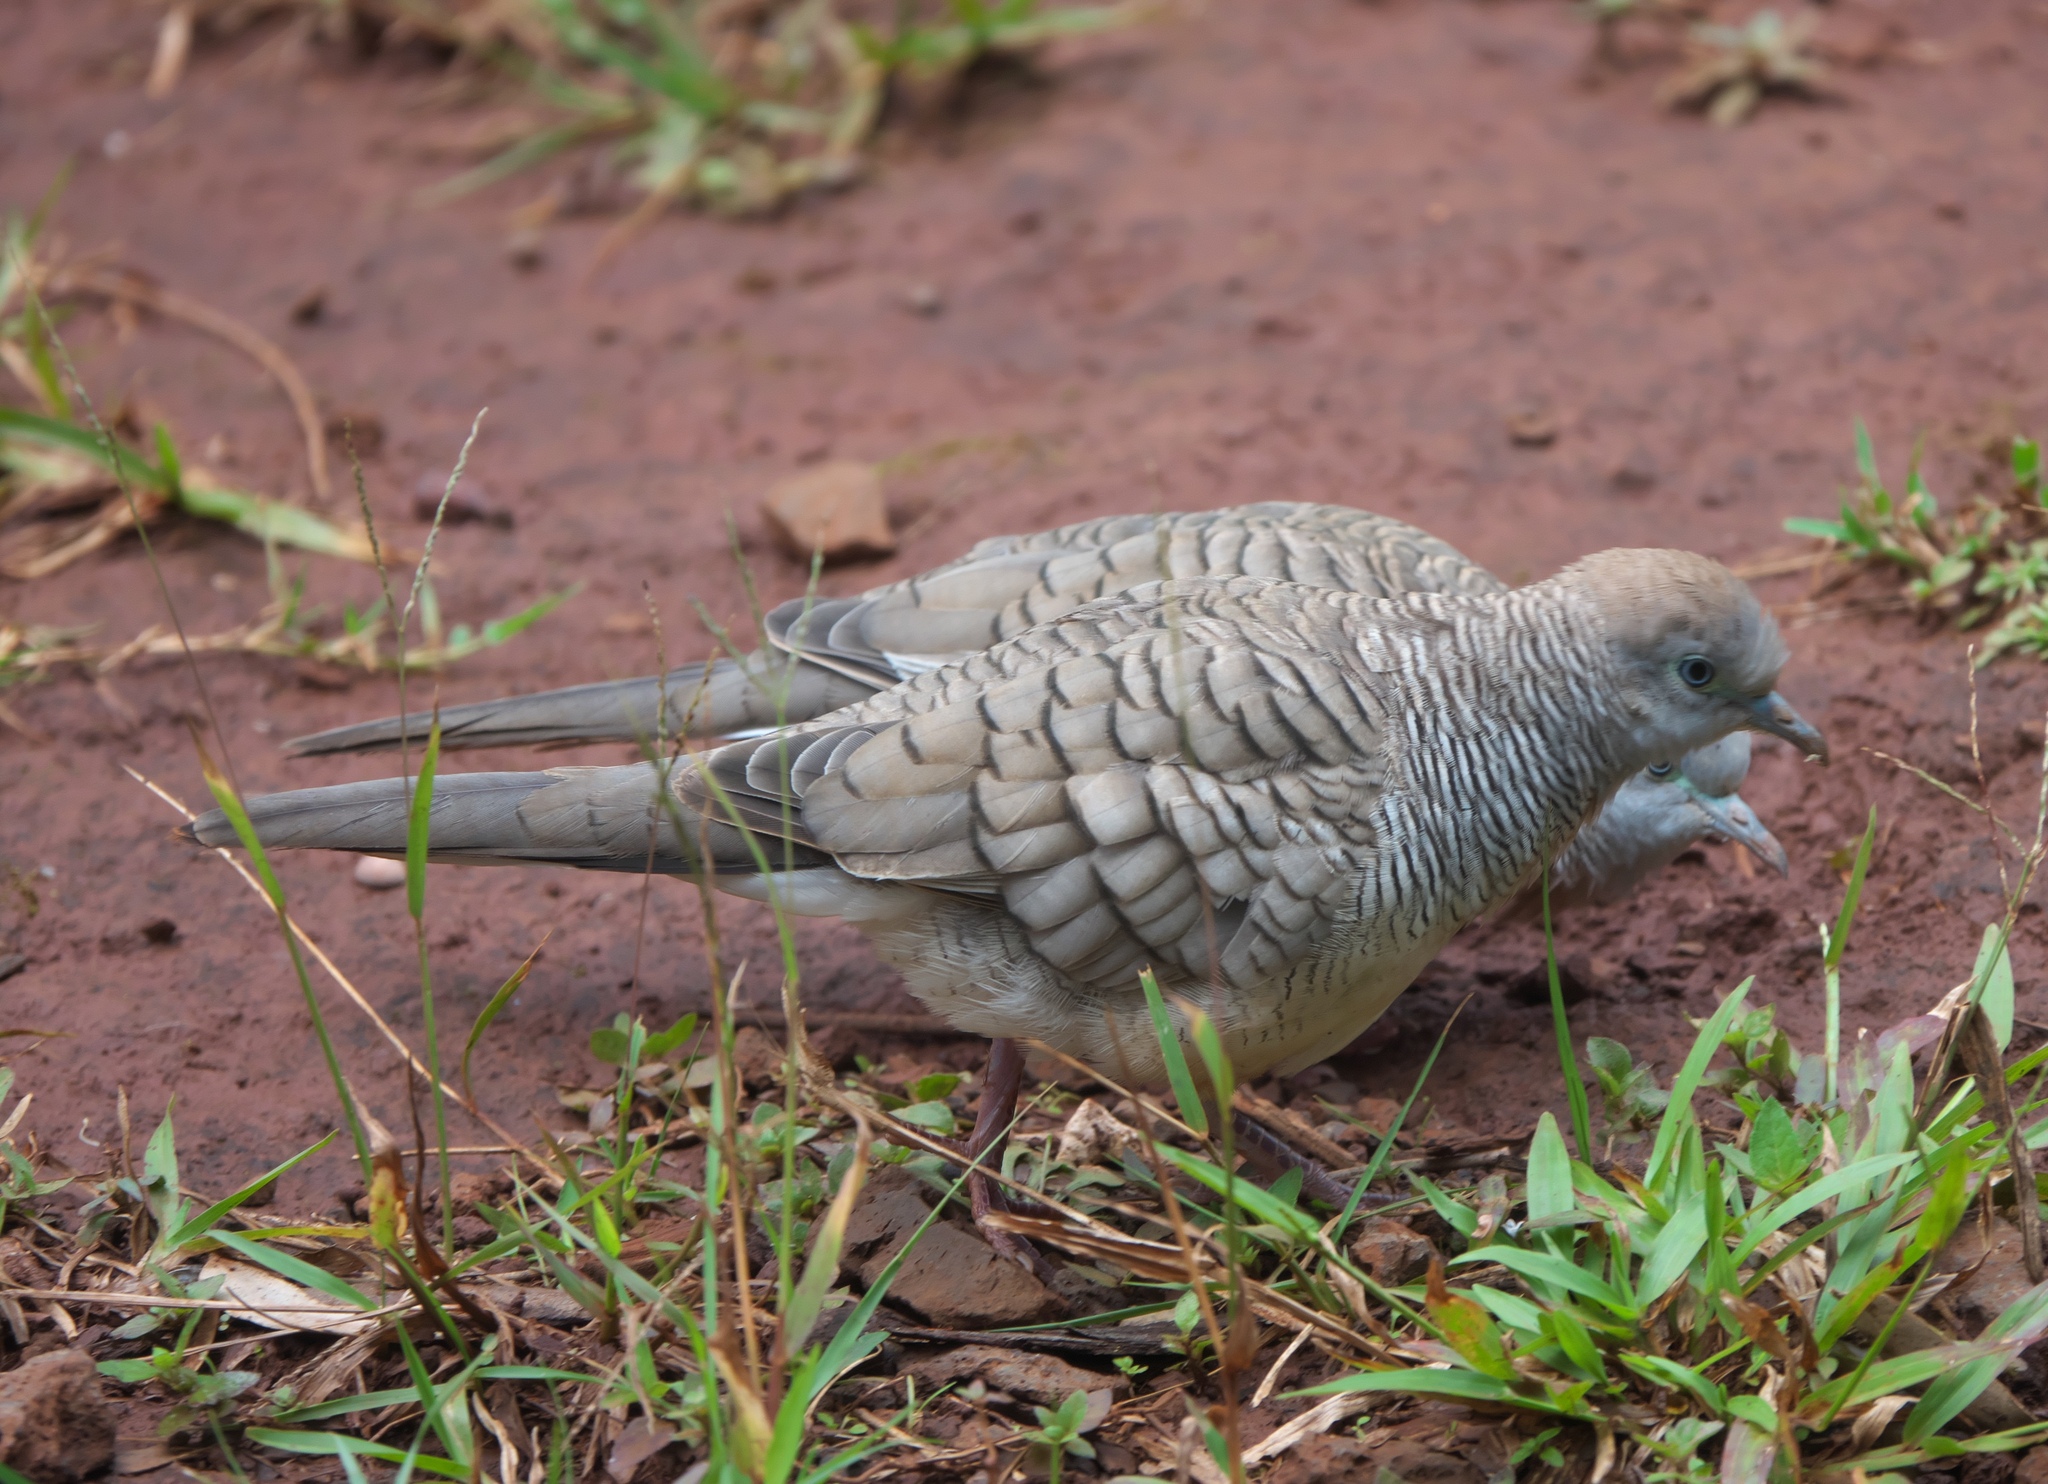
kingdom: Animalia
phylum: Chordata
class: Aves
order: Columbiformes
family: Columbidae
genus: Geopelia
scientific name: Geopelia striata
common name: Zebra dove
